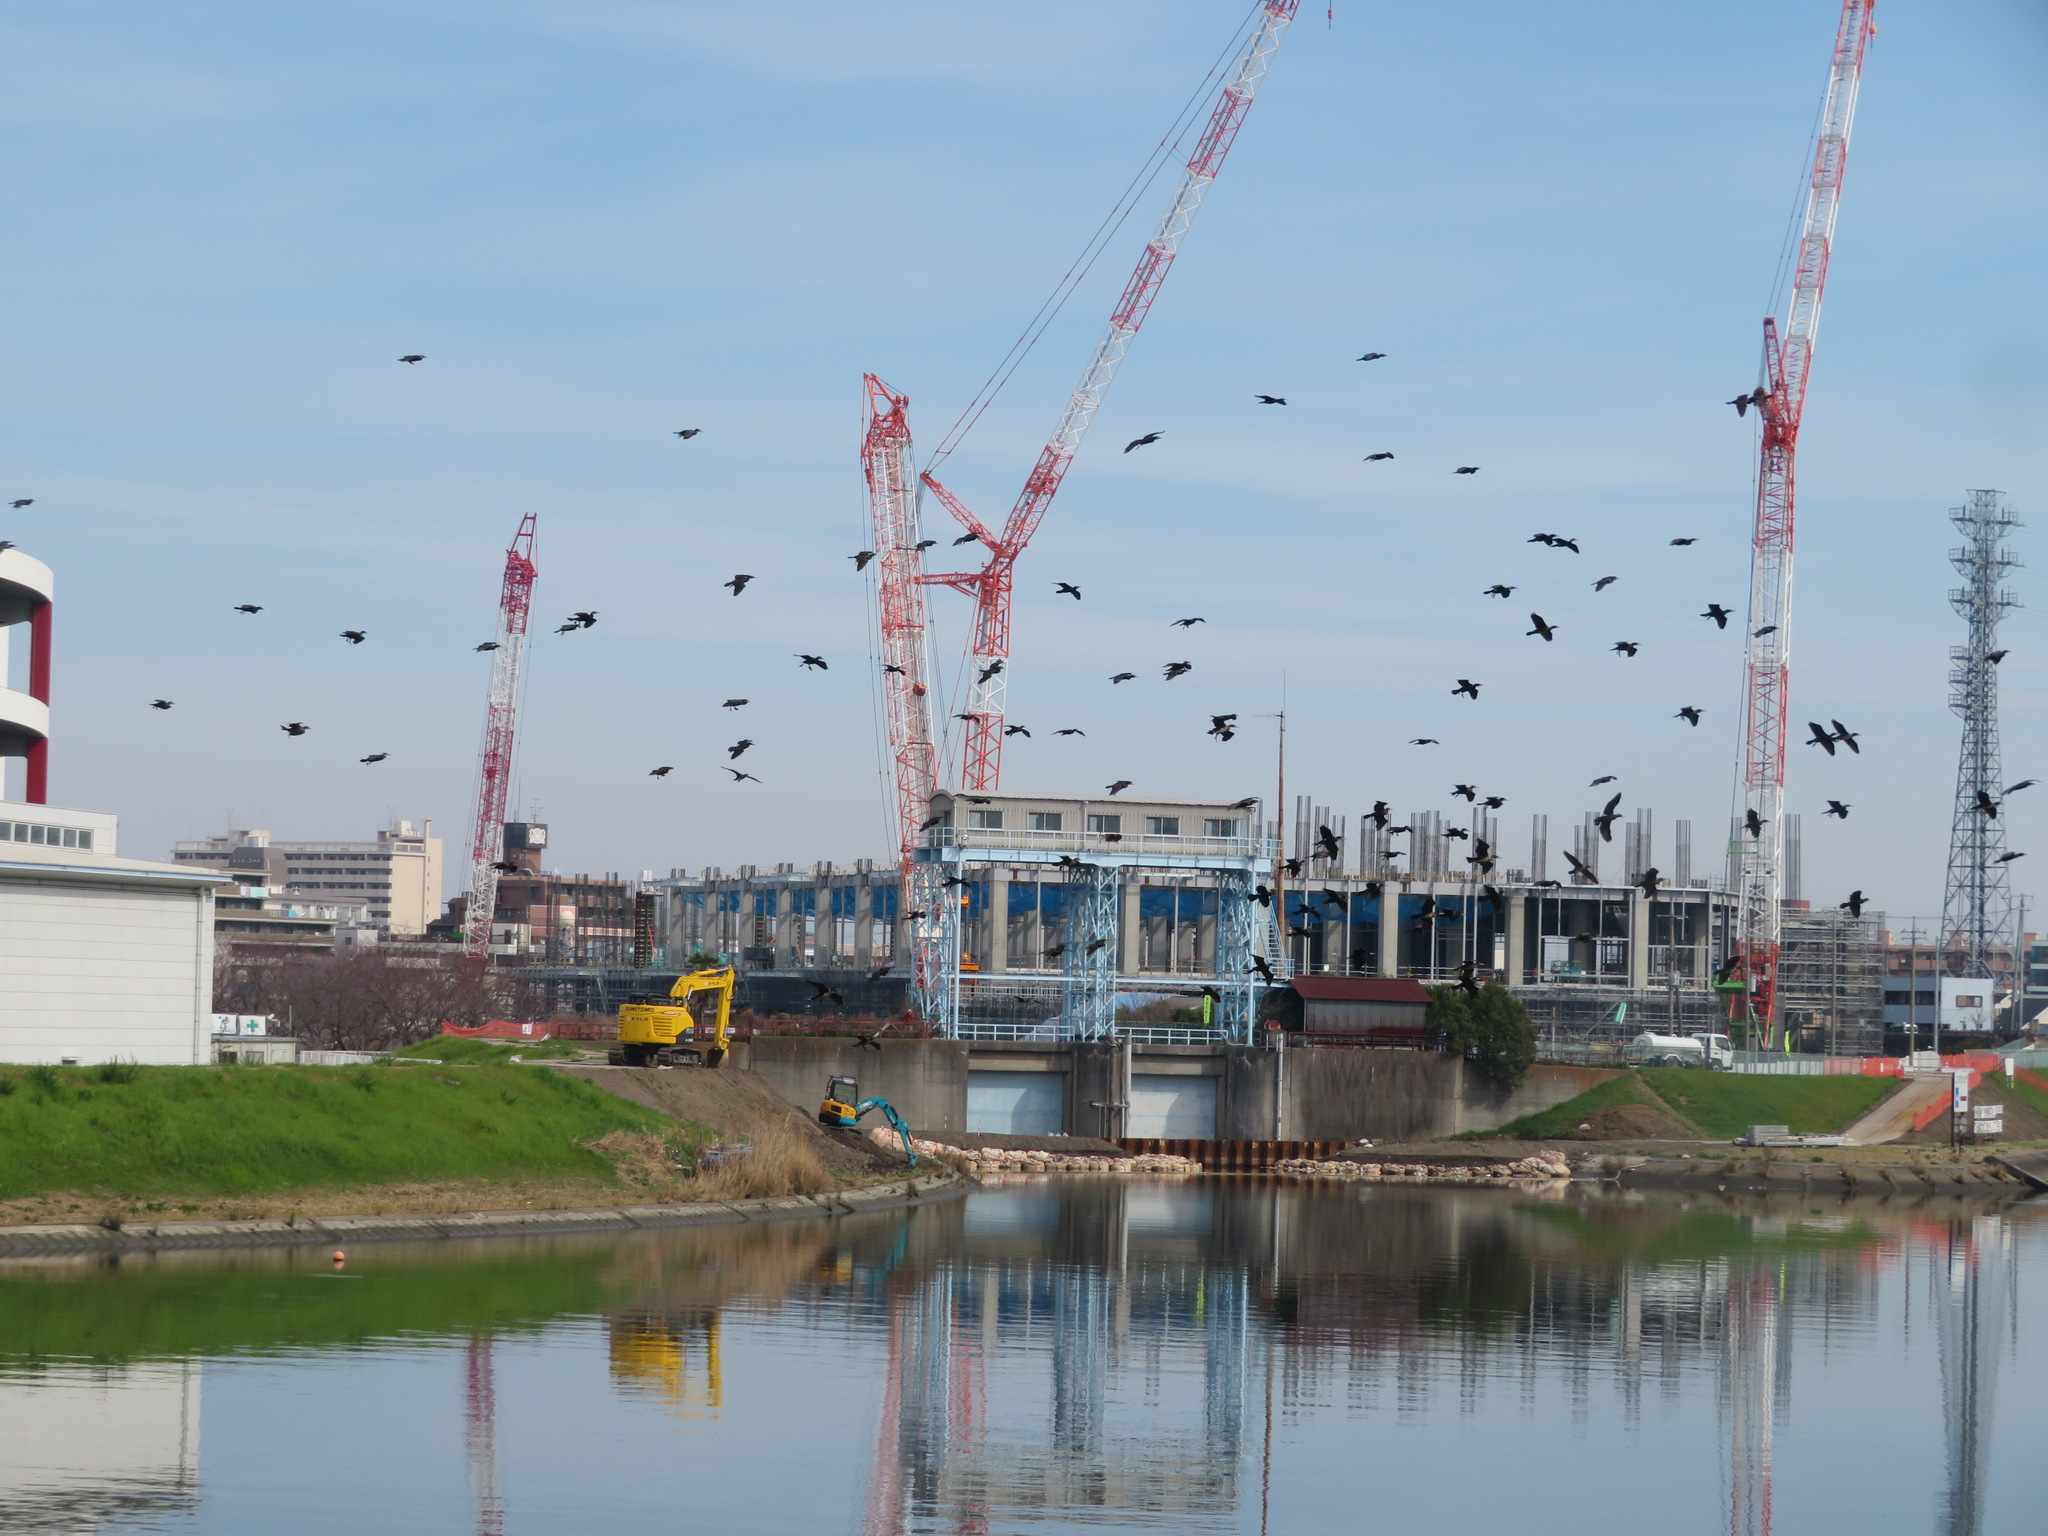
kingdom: Animalia
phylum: Chordata
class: Aves
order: Suliformes
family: Phalacrocoracidae
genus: Phalacrocorax
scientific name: Phalacrocorax carbo
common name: Great cormorant
